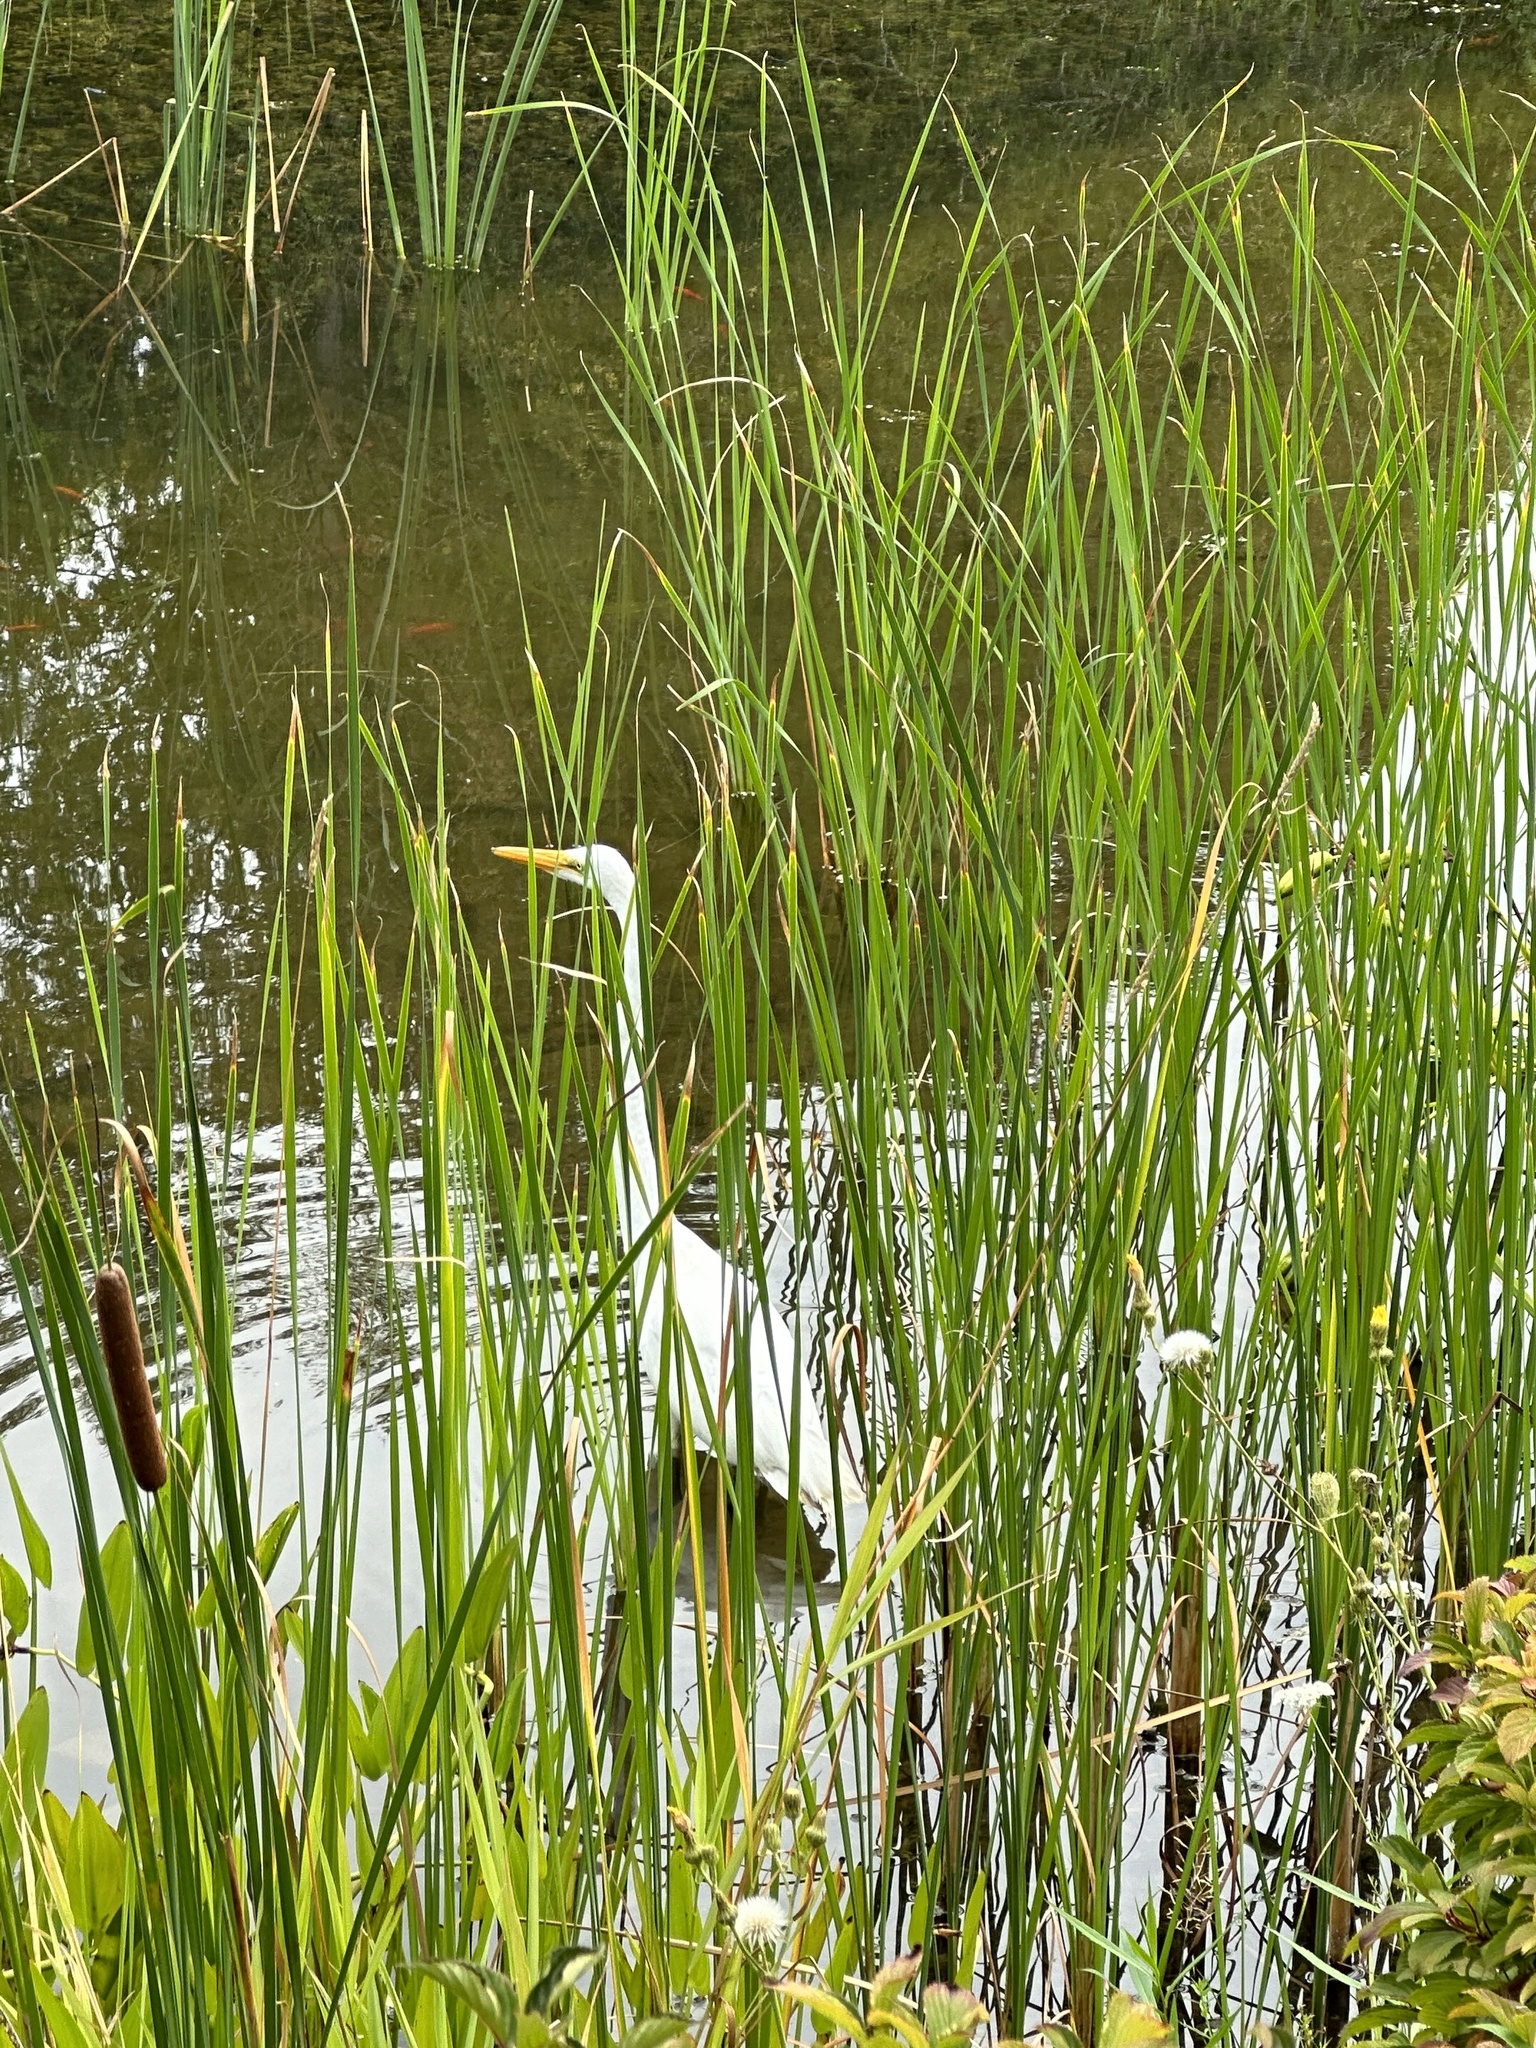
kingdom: Animalia
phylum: Chordata
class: Aves
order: Pelecaniformes
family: Ardeidae
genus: Ardea
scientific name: Ardea alba
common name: Great egret
